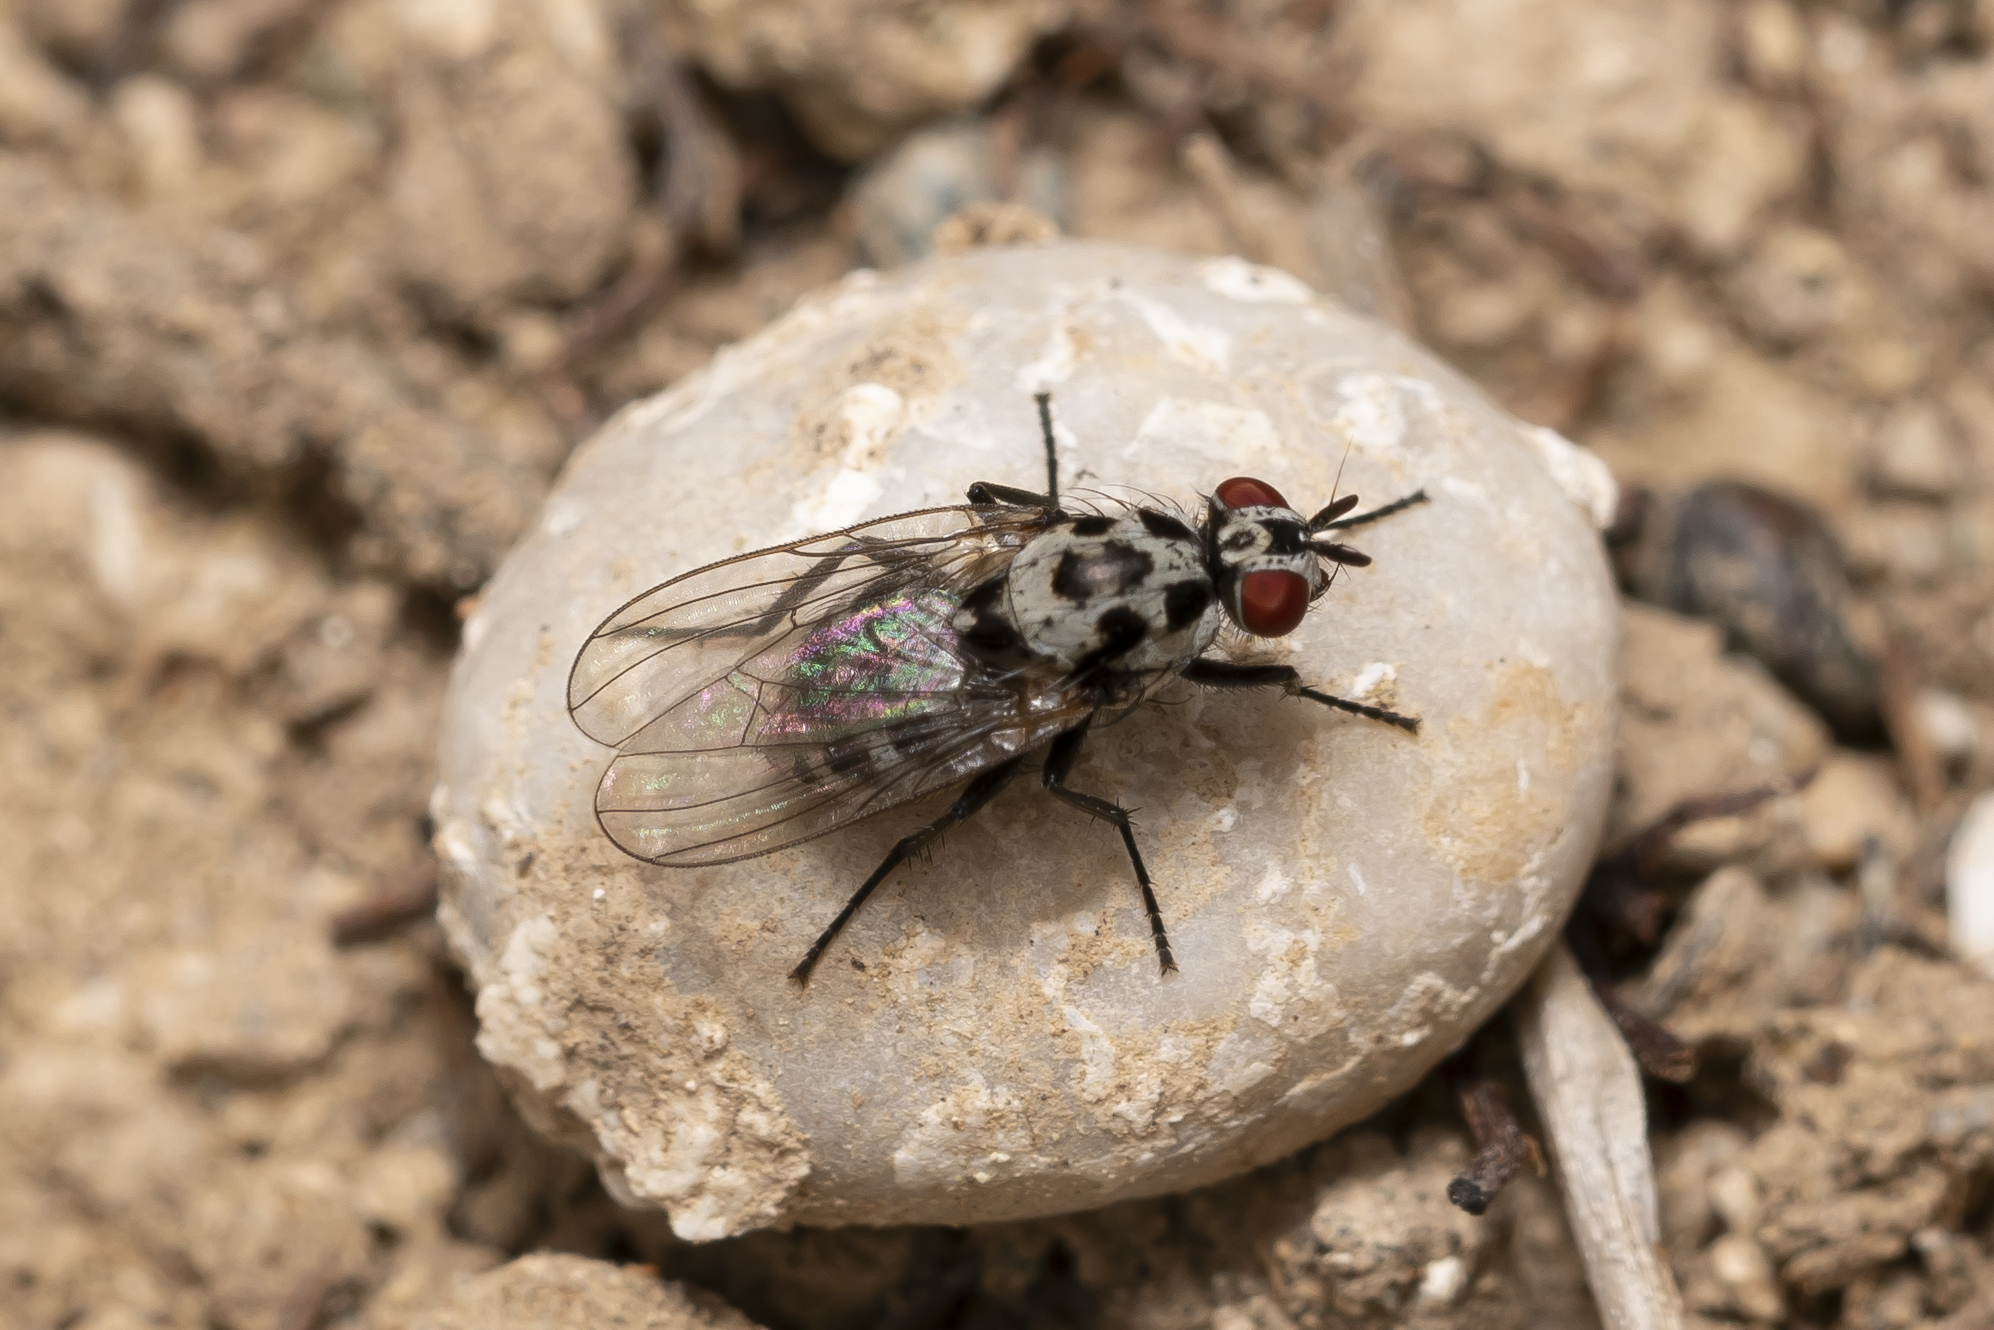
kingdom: Animalia
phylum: Arthropoda
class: Insecta
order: Diptera
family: Anthomyiidae
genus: Anthomyia
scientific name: Anthomyia pluvialis
